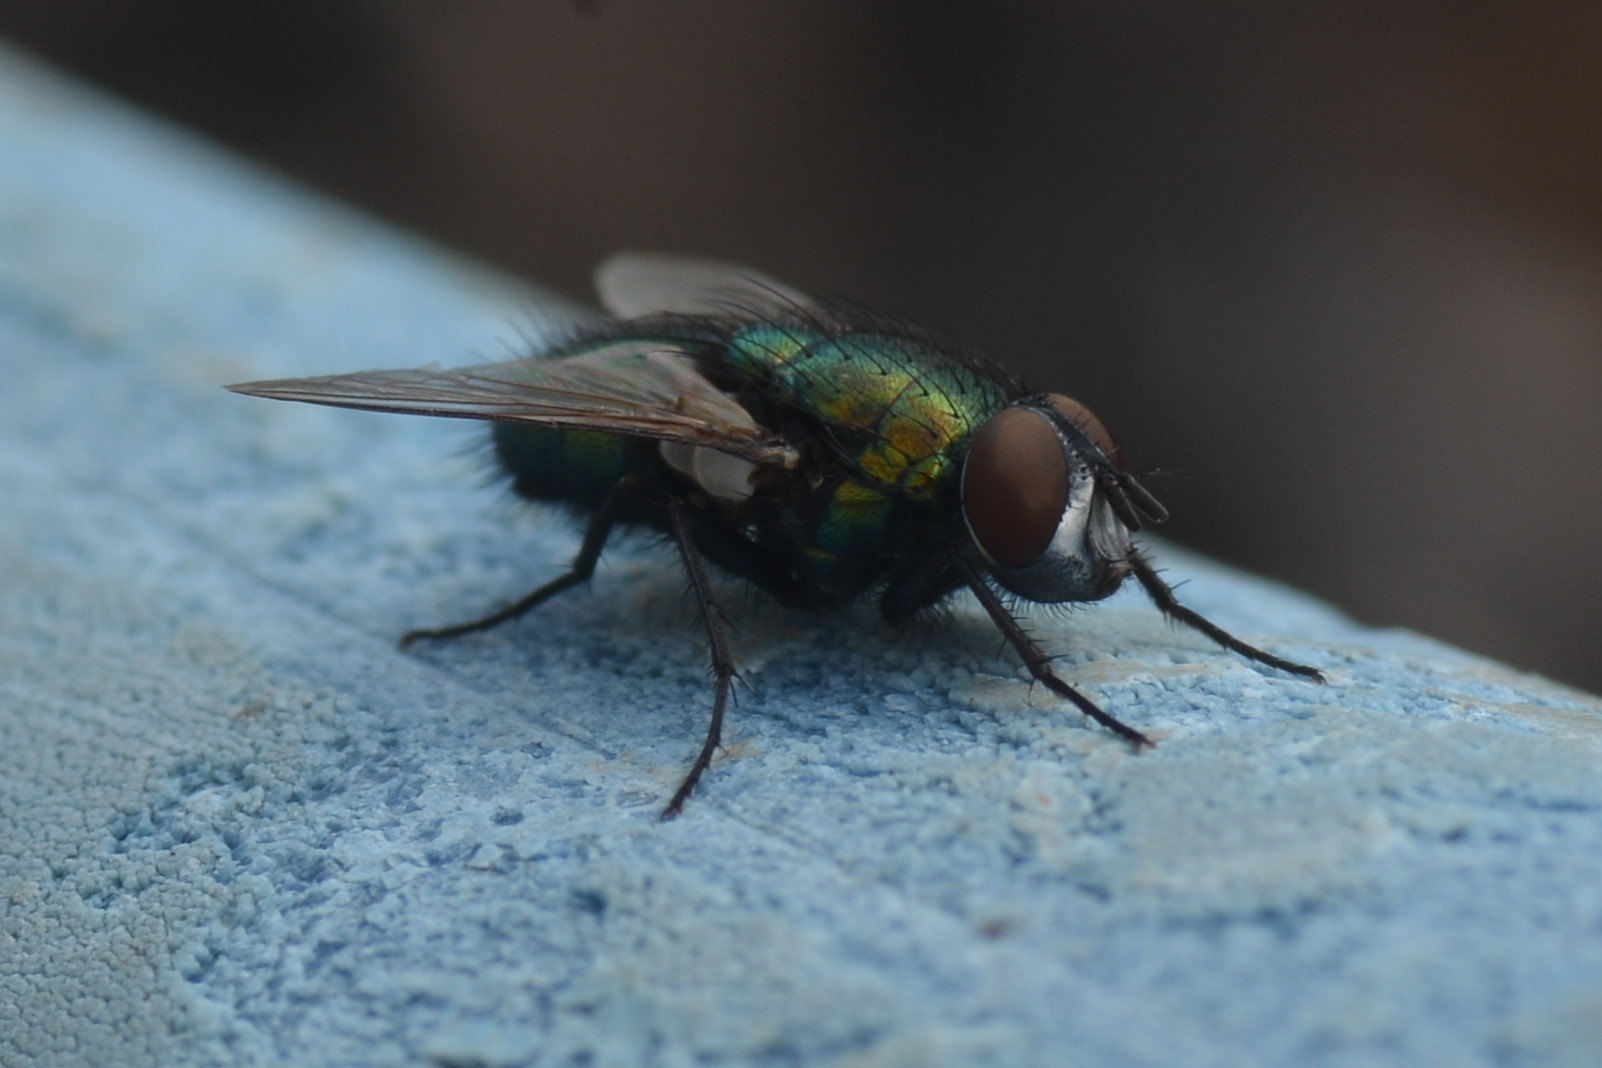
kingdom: Animalia
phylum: Arthropoda
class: Insecta
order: Diptera
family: Calliphoridae
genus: Lucilia
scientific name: Lucilia sericata
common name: Blow fly
